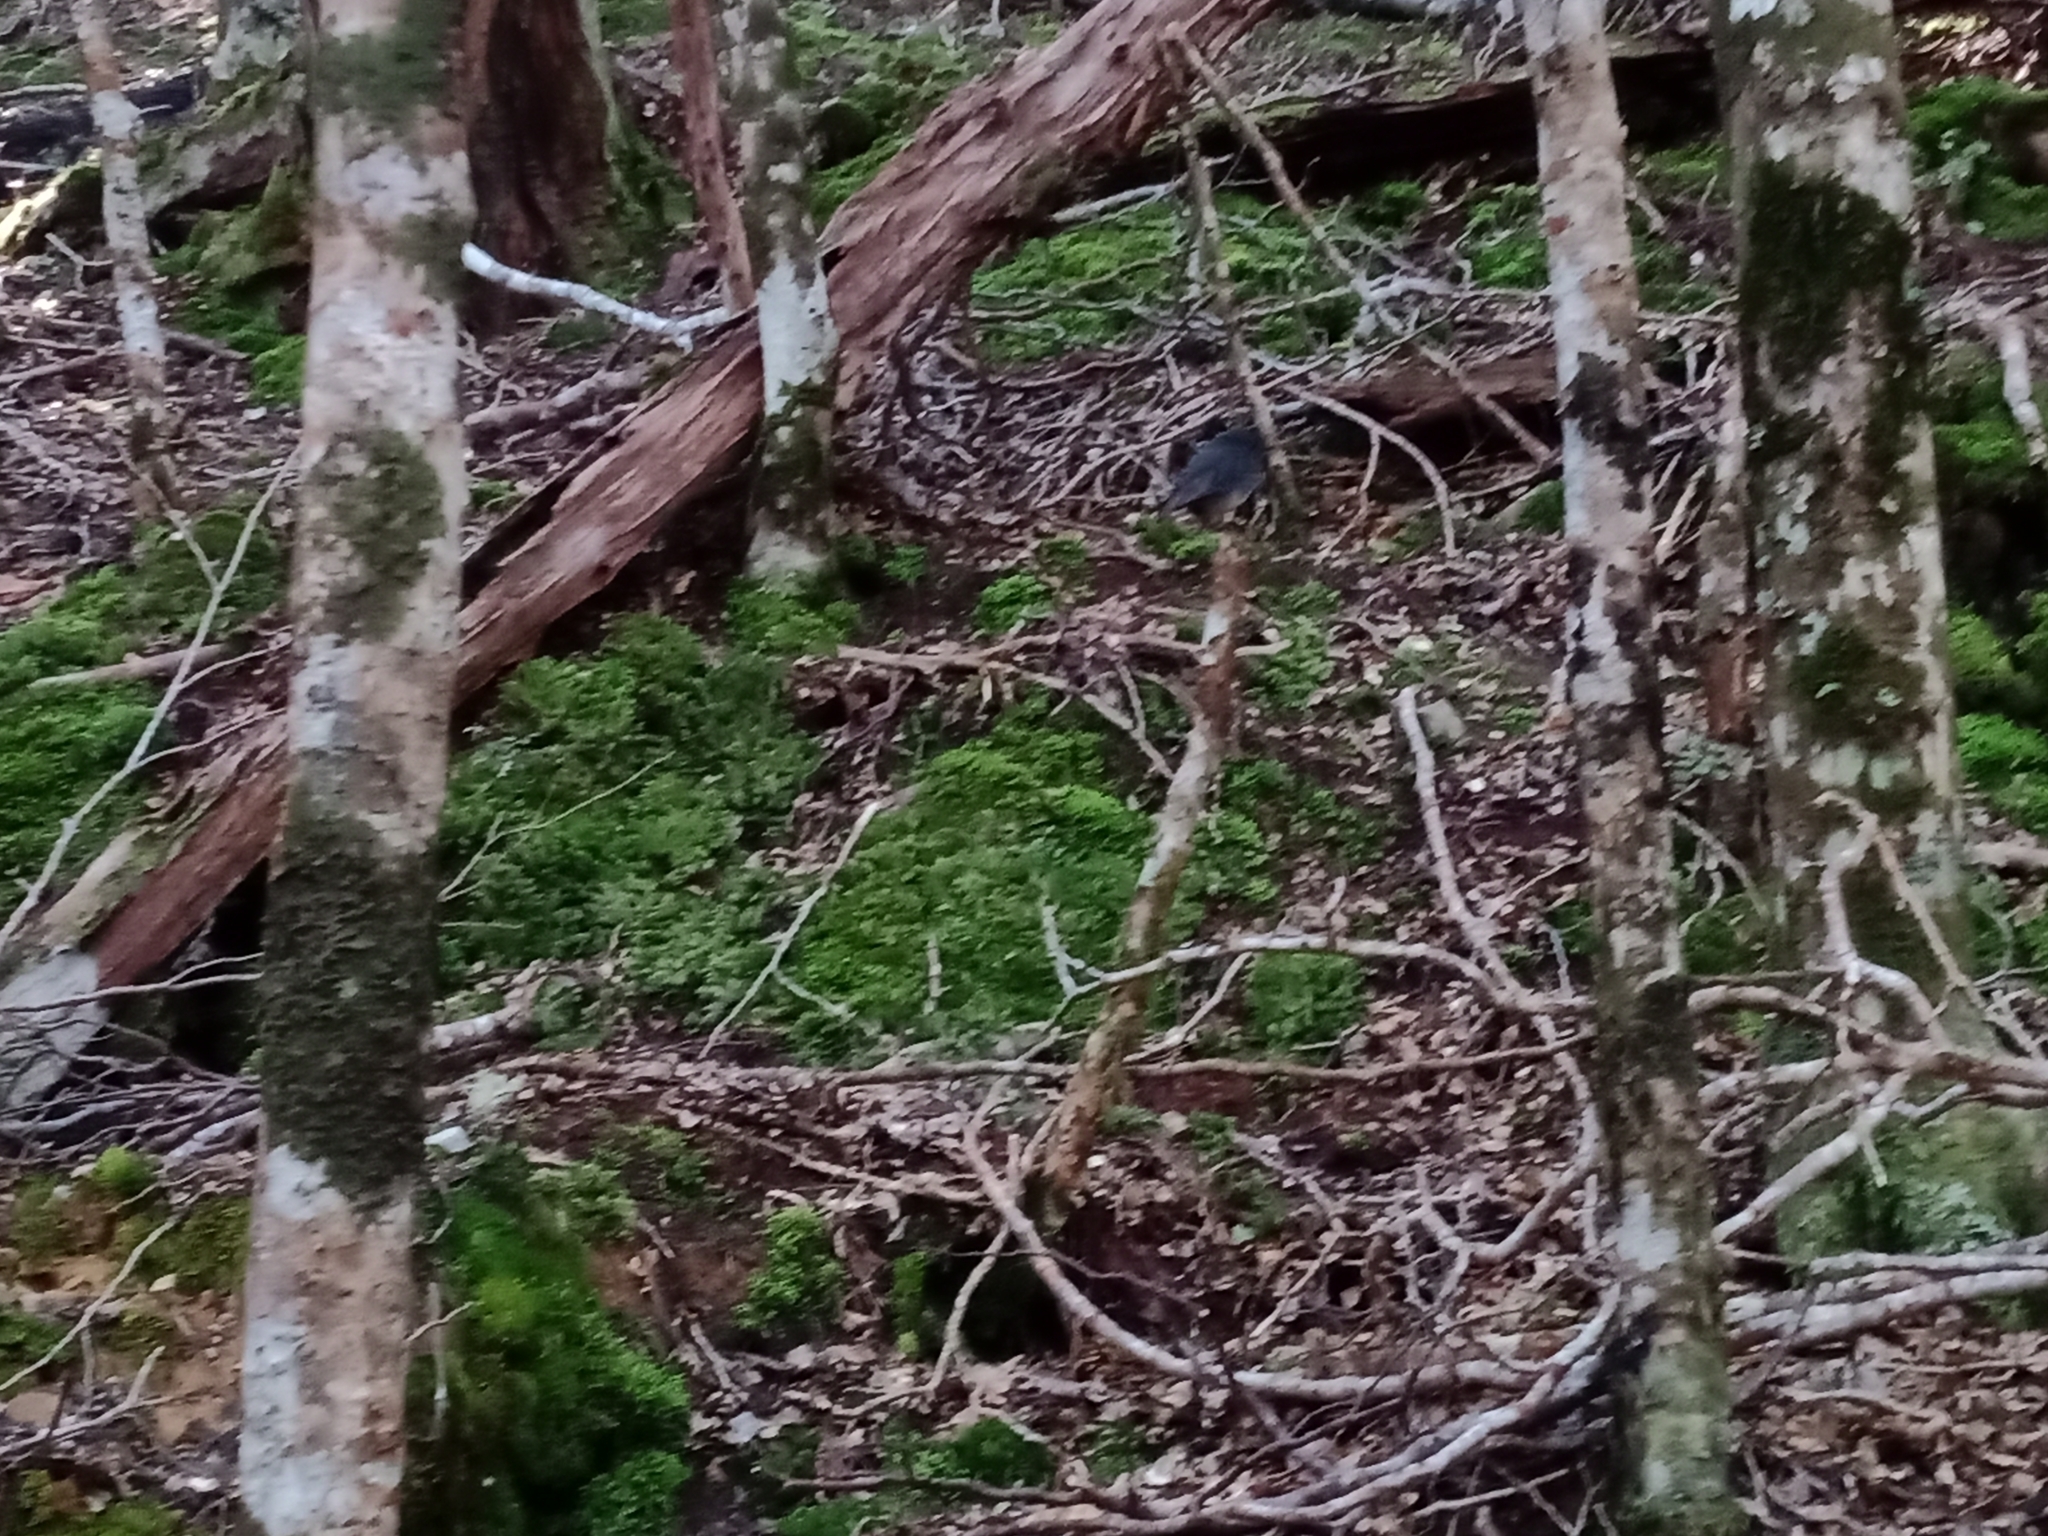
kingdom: Animalia
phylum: Chordata
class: Aves
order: Passeriformes
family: Petroicidae
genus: Petroica
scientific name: Petroica australis
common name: New zealand robin
